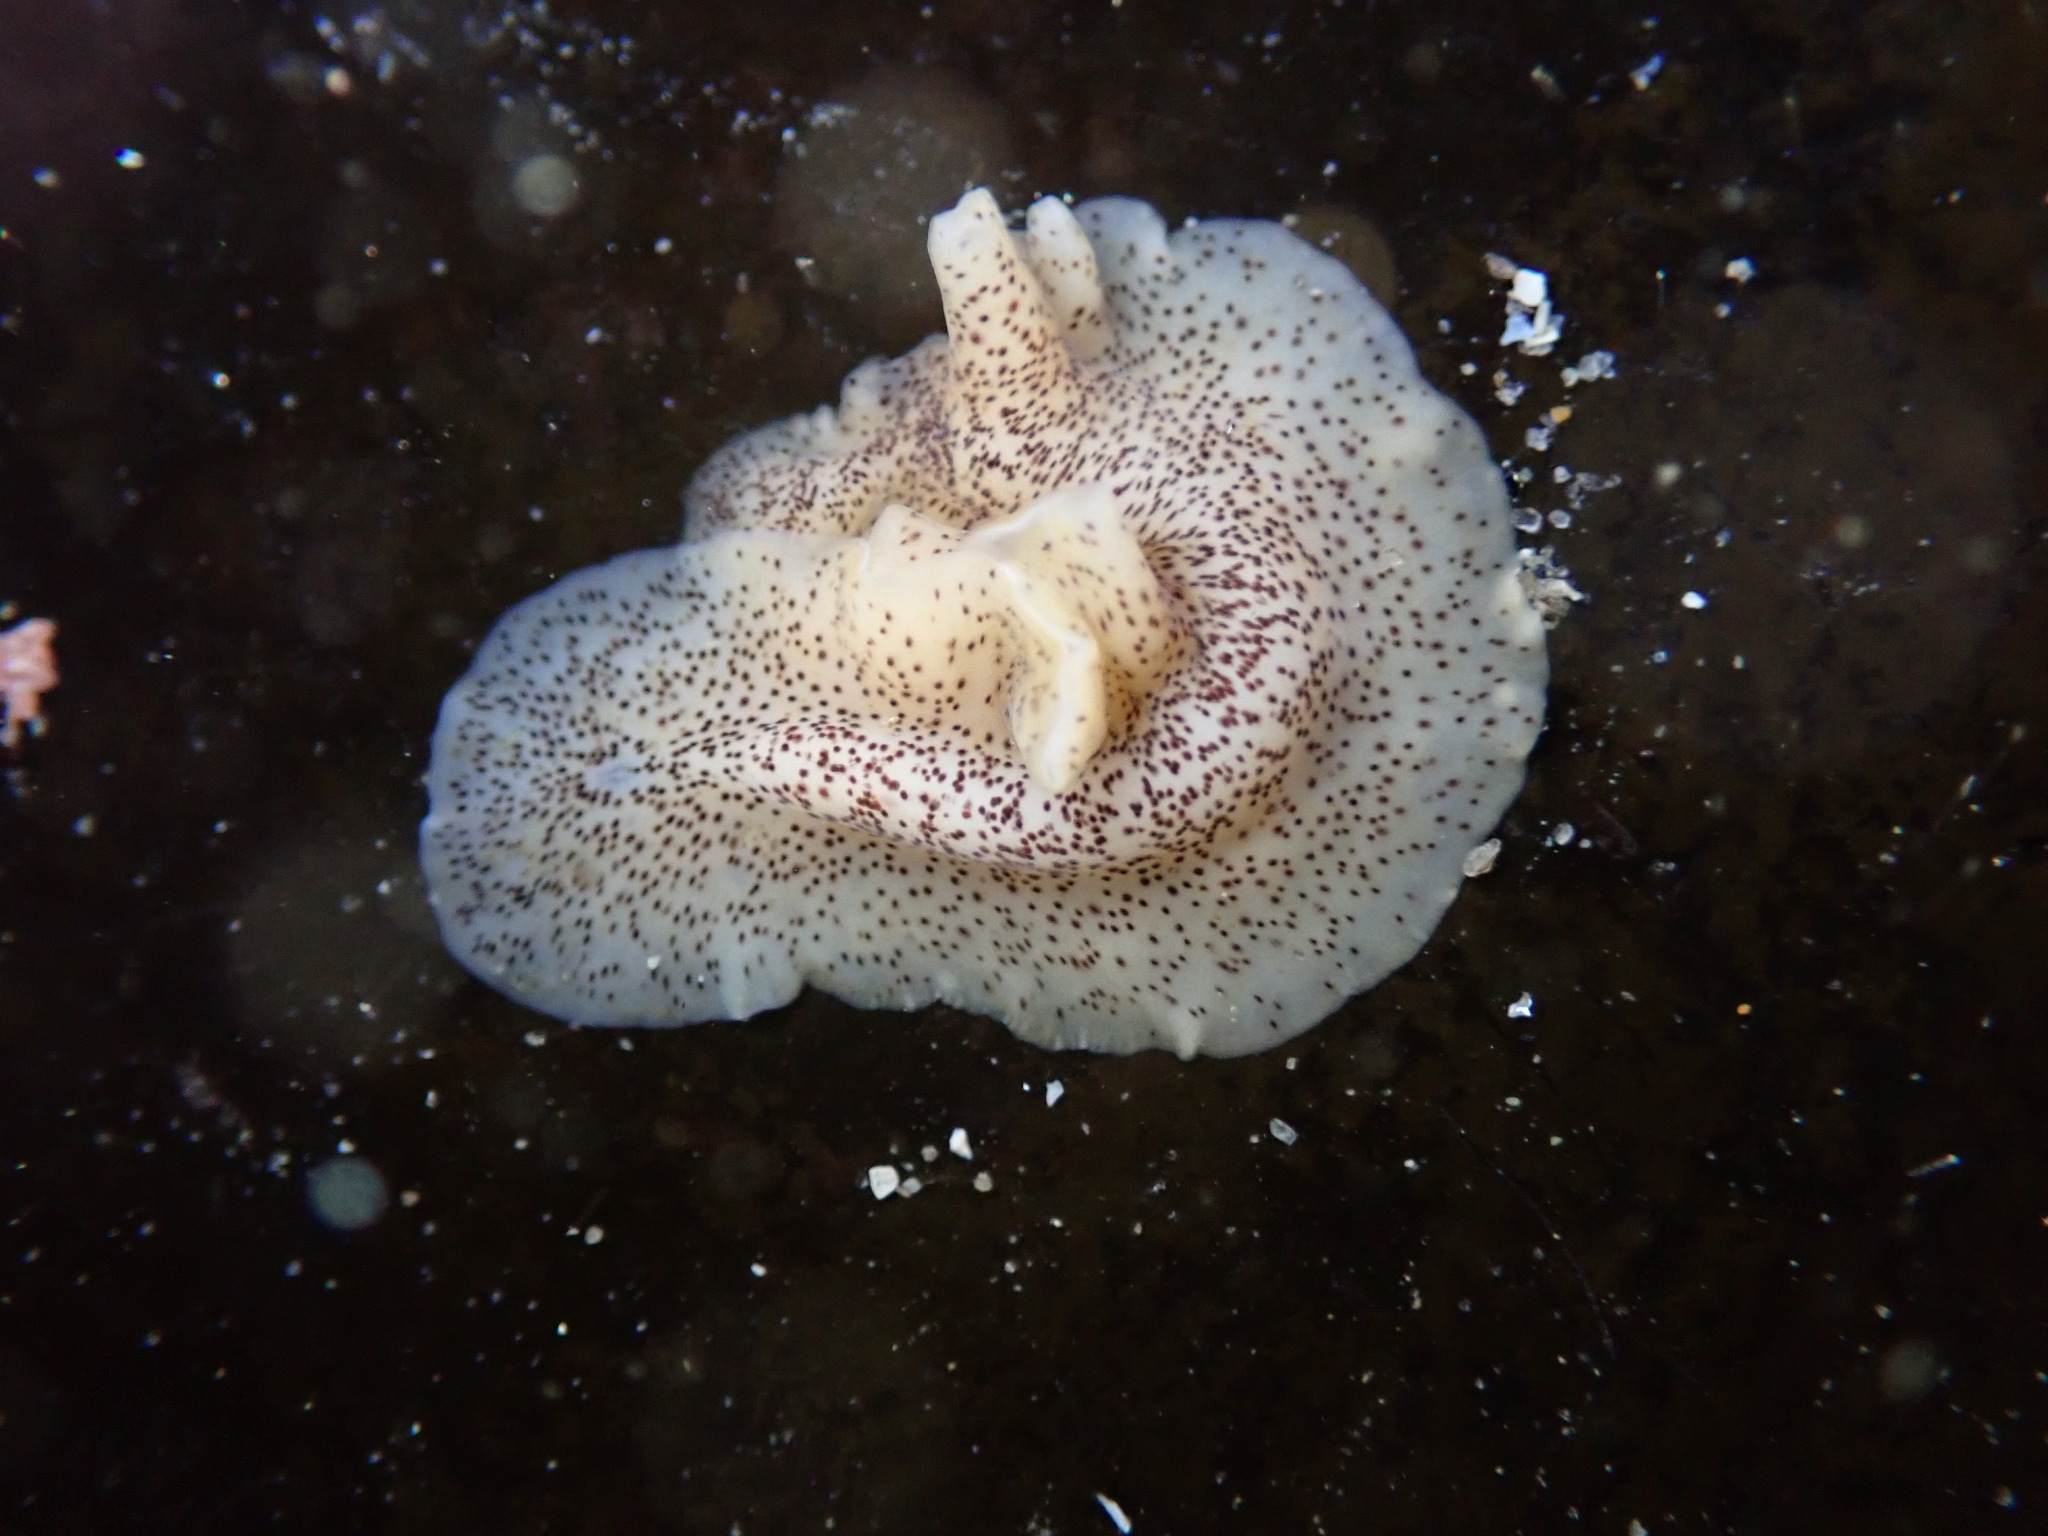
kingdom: Animalia
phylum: Platyhelminthes
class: Turbellaria
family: Prosthiostomidae
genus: Enchiridium
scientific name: Enchiridium punctatum
